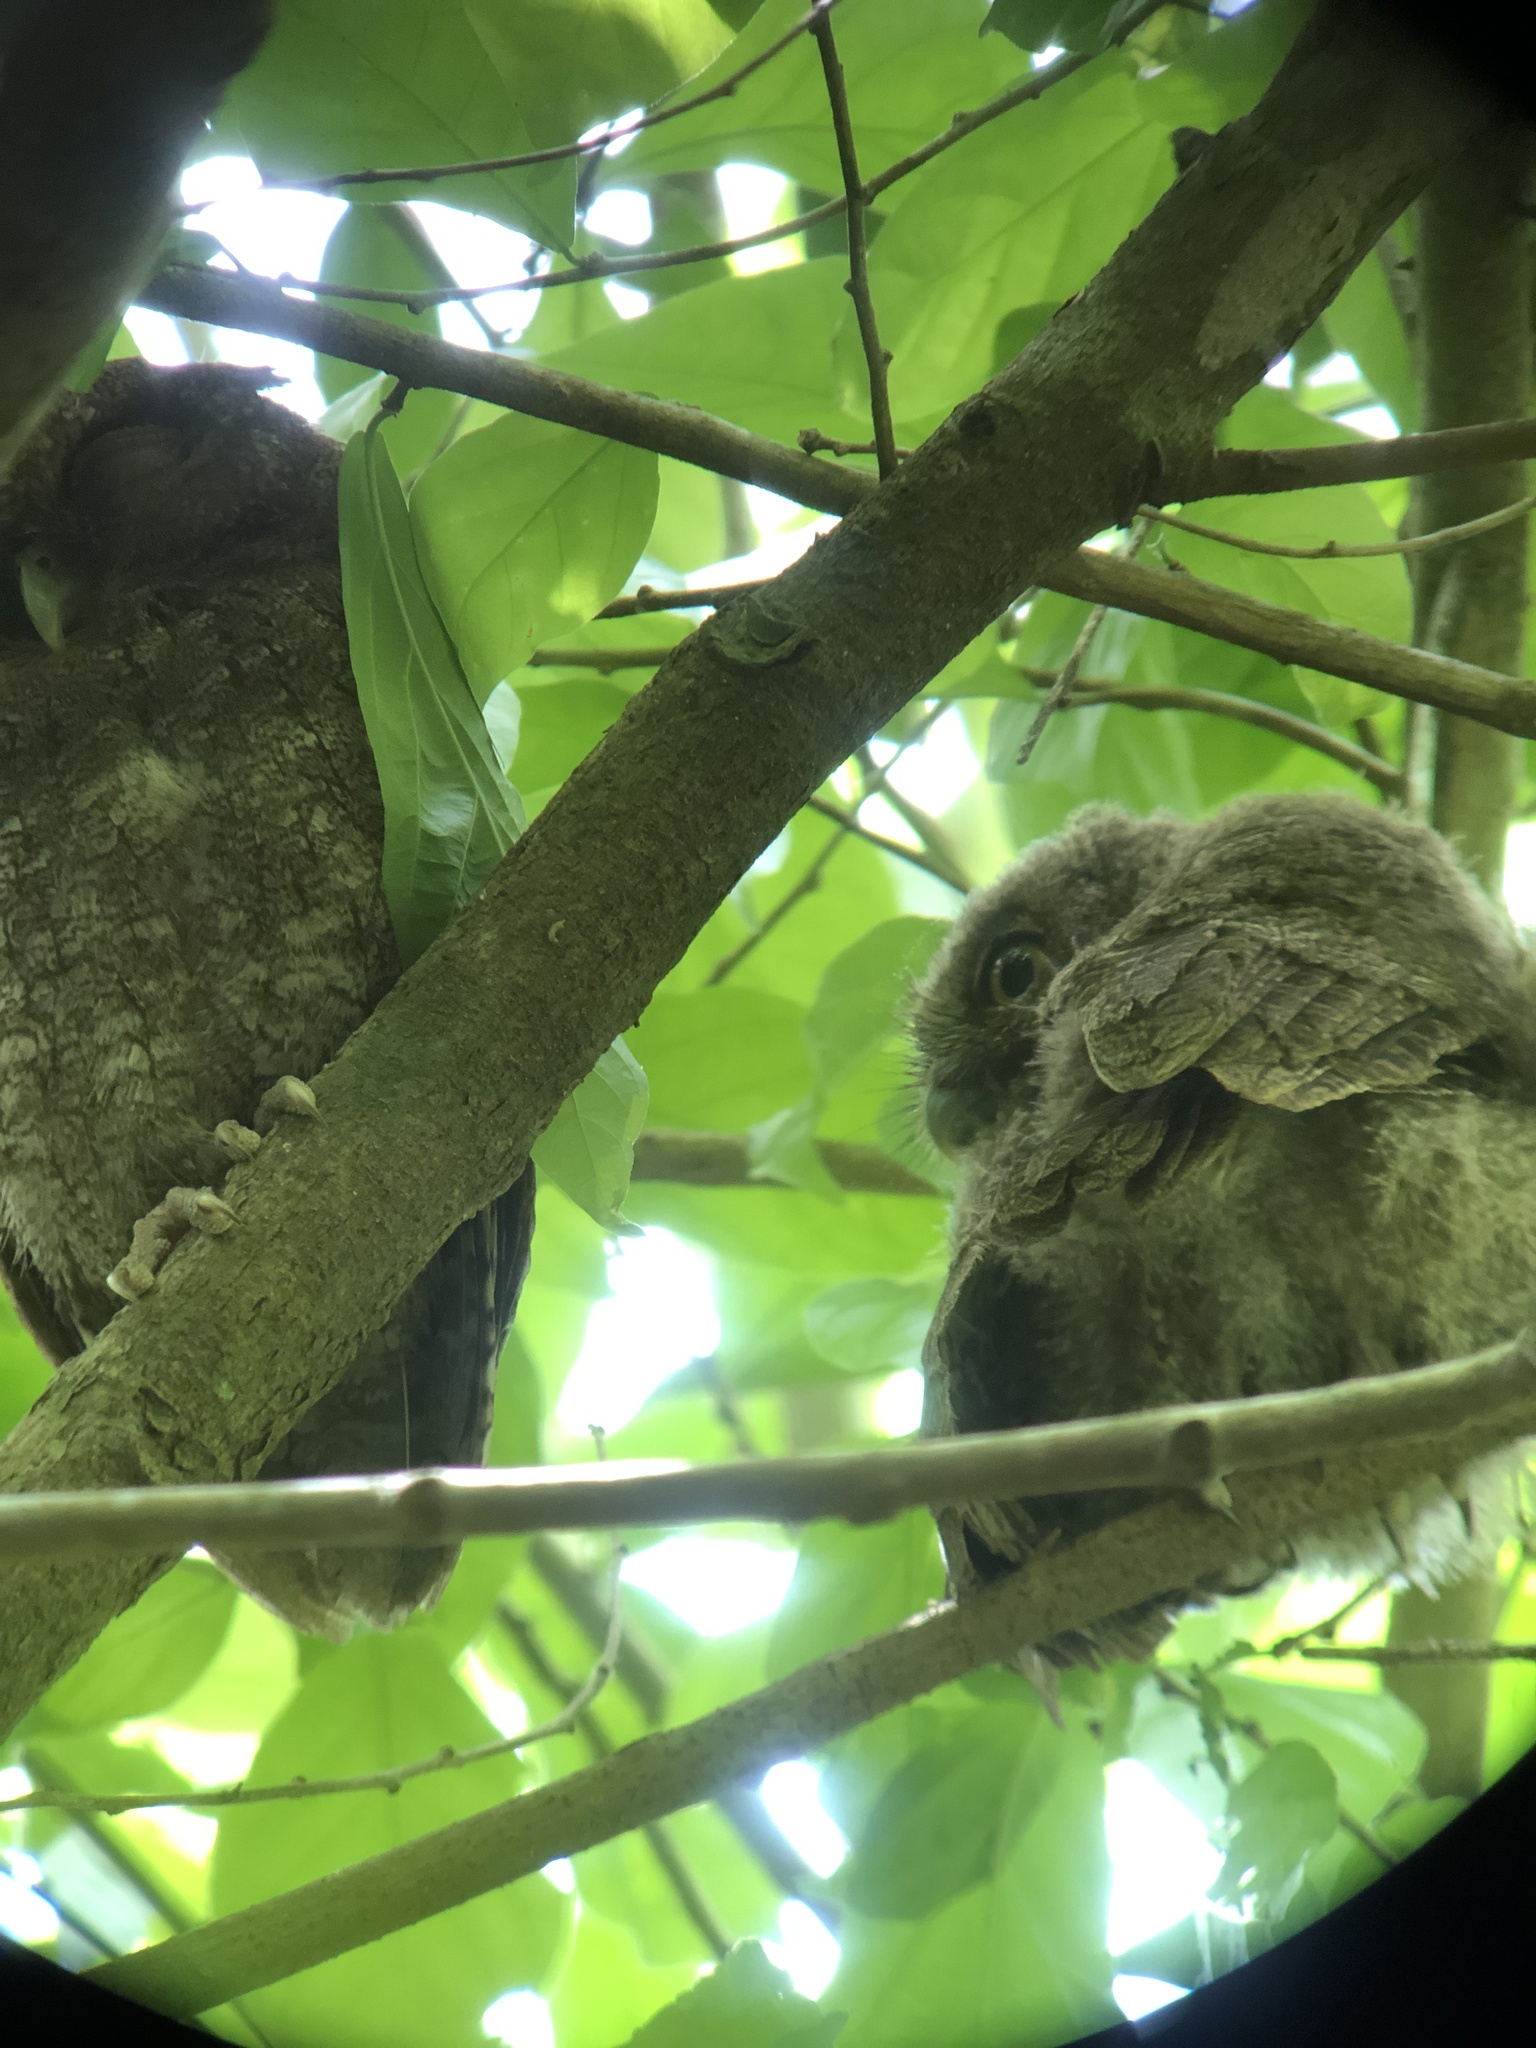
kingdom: Animalia
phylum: Chordata
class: Aves
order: Strigiformes
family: Strigidae
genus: Megascops
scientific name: Megascops centralis
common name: Choco screech owl
